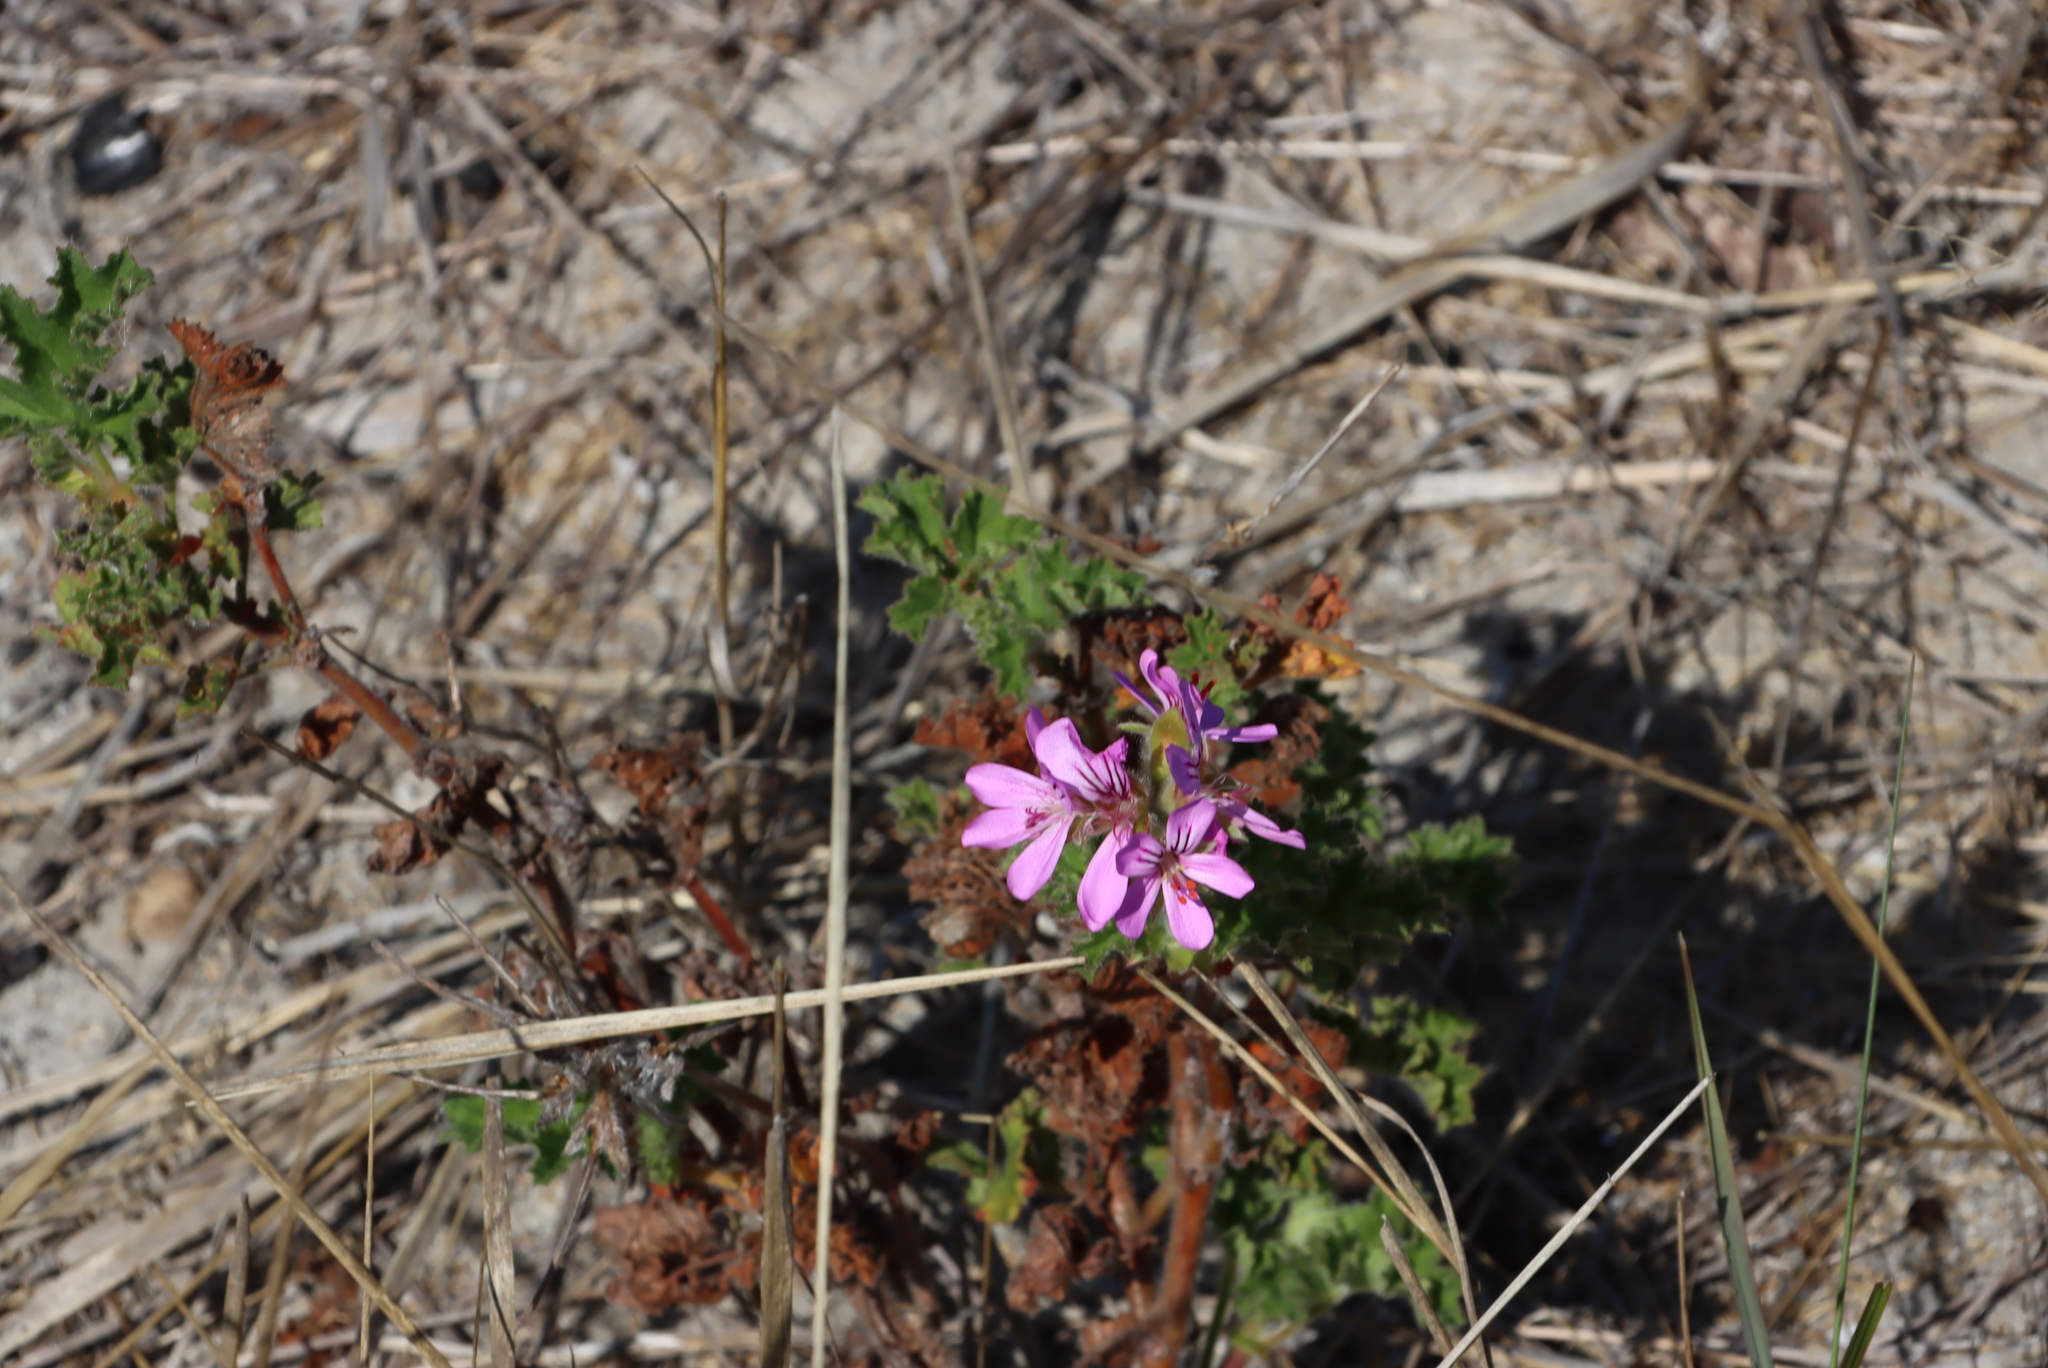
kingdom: Plantae
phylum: Tracheophyta
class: Magnoliopsida
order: Geraniales
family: Geraniaceae
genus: Pelargonium
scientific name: Pelargonium capitatum
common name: Rose scented geranium
